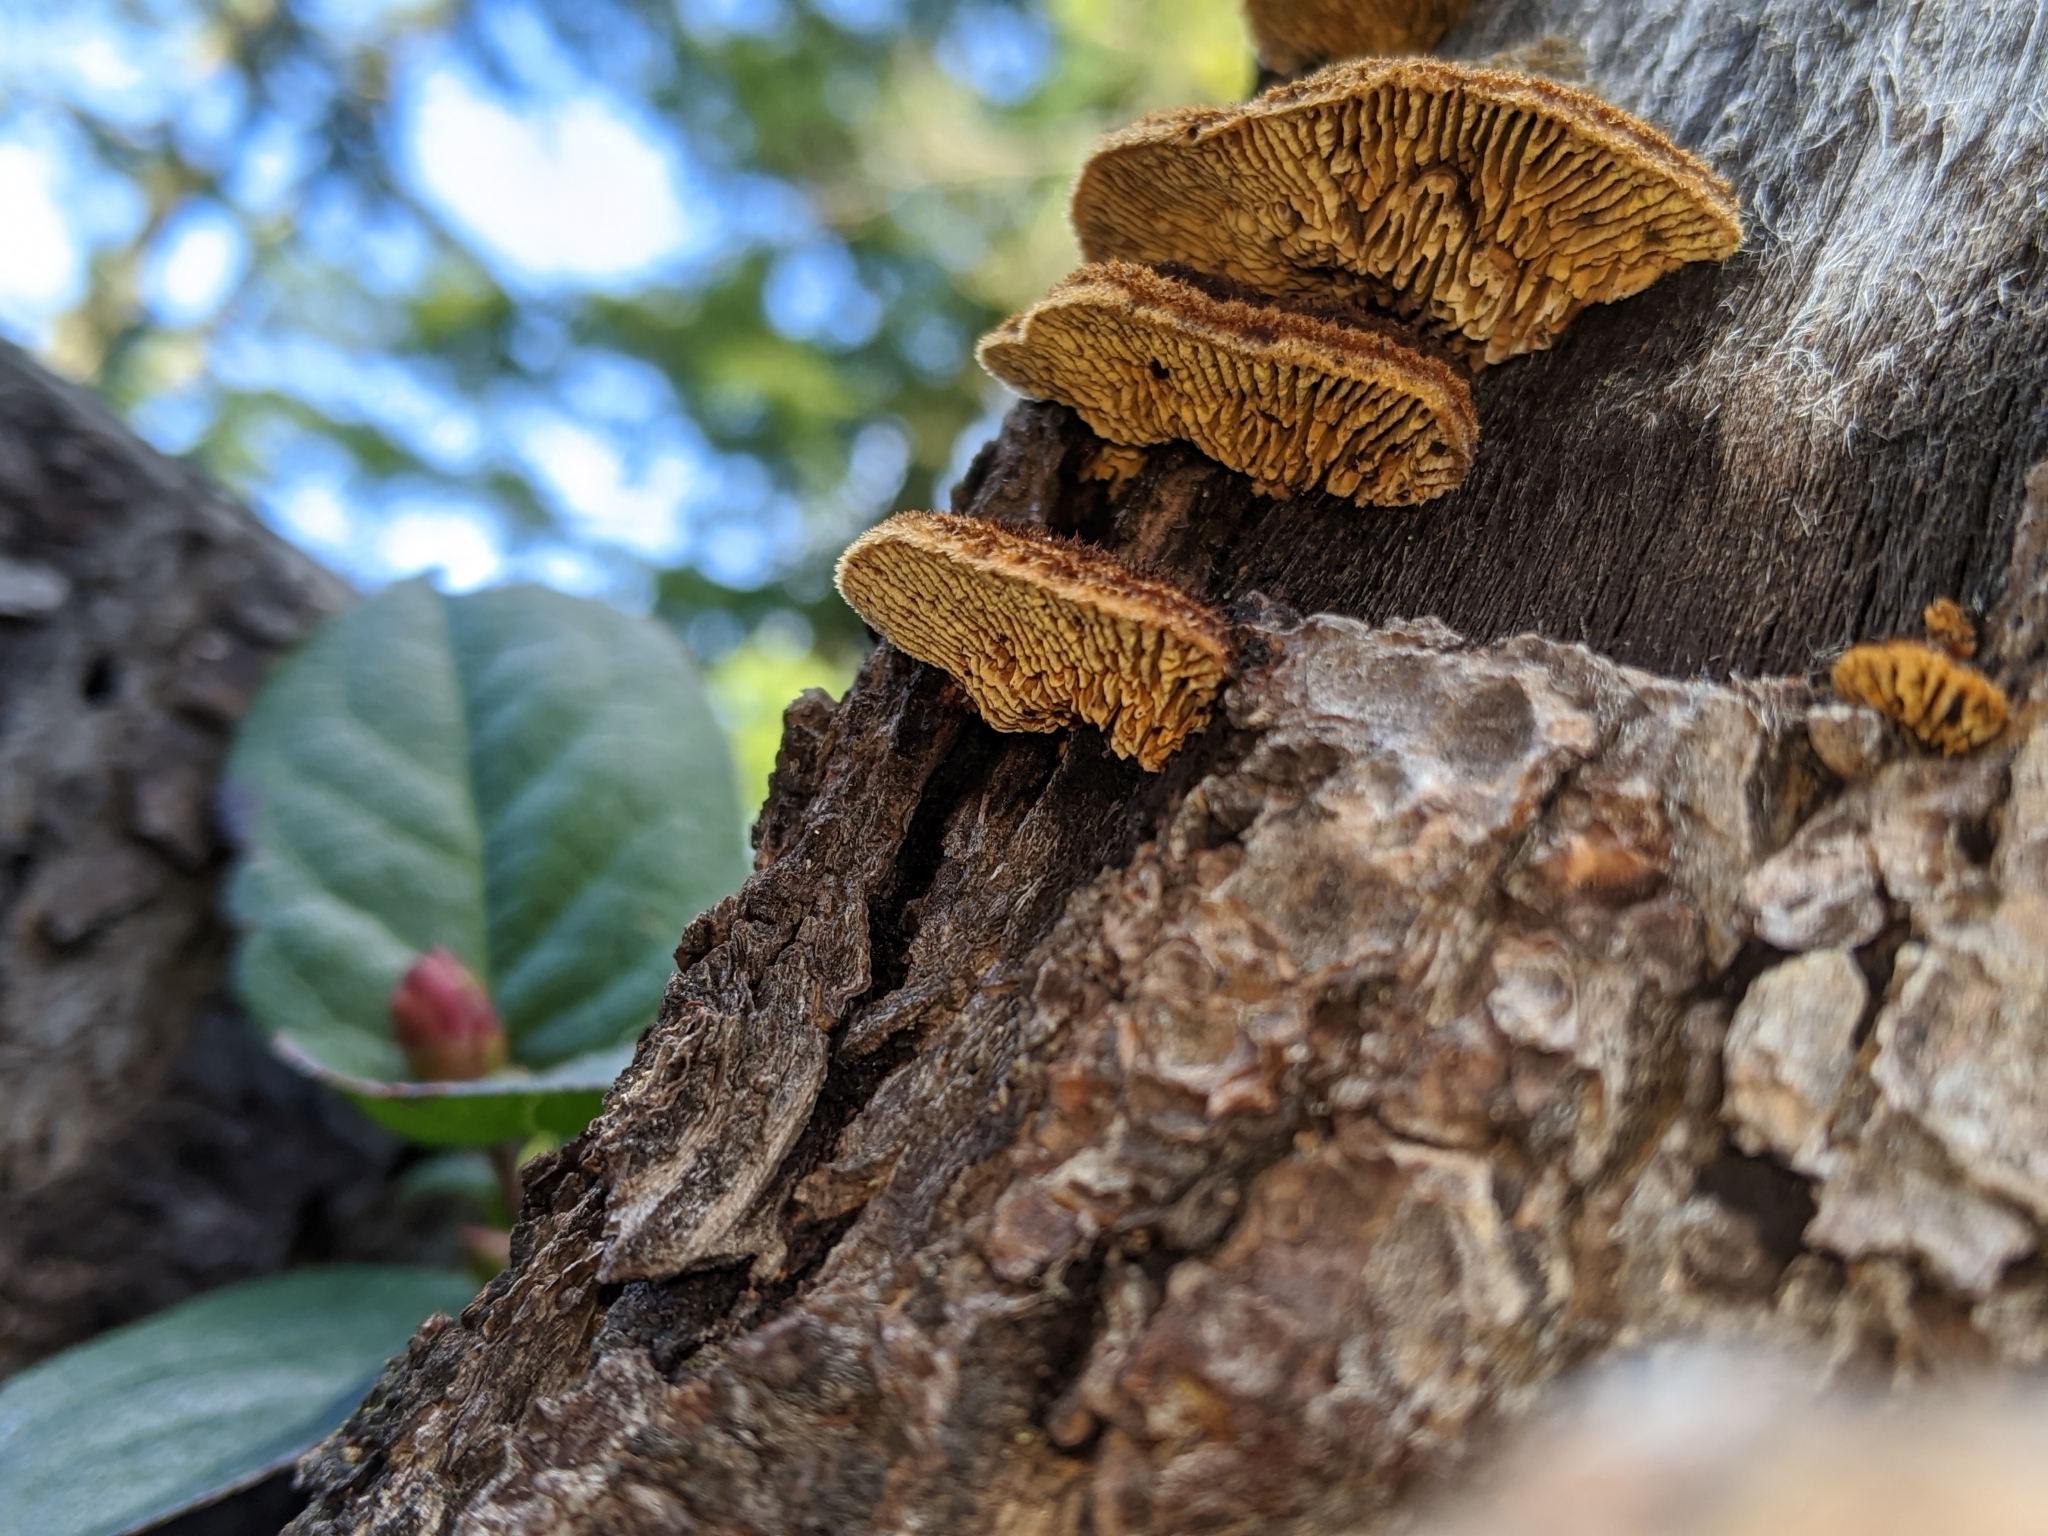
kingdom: Fungi
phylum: Basidiomycota
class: Agaricomycetes
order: Gloeophyllales
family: Gloeophyllaceae
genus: Gloeophyllum
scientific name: Gloeophyllum sepiarium
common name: Conifer mazegill
